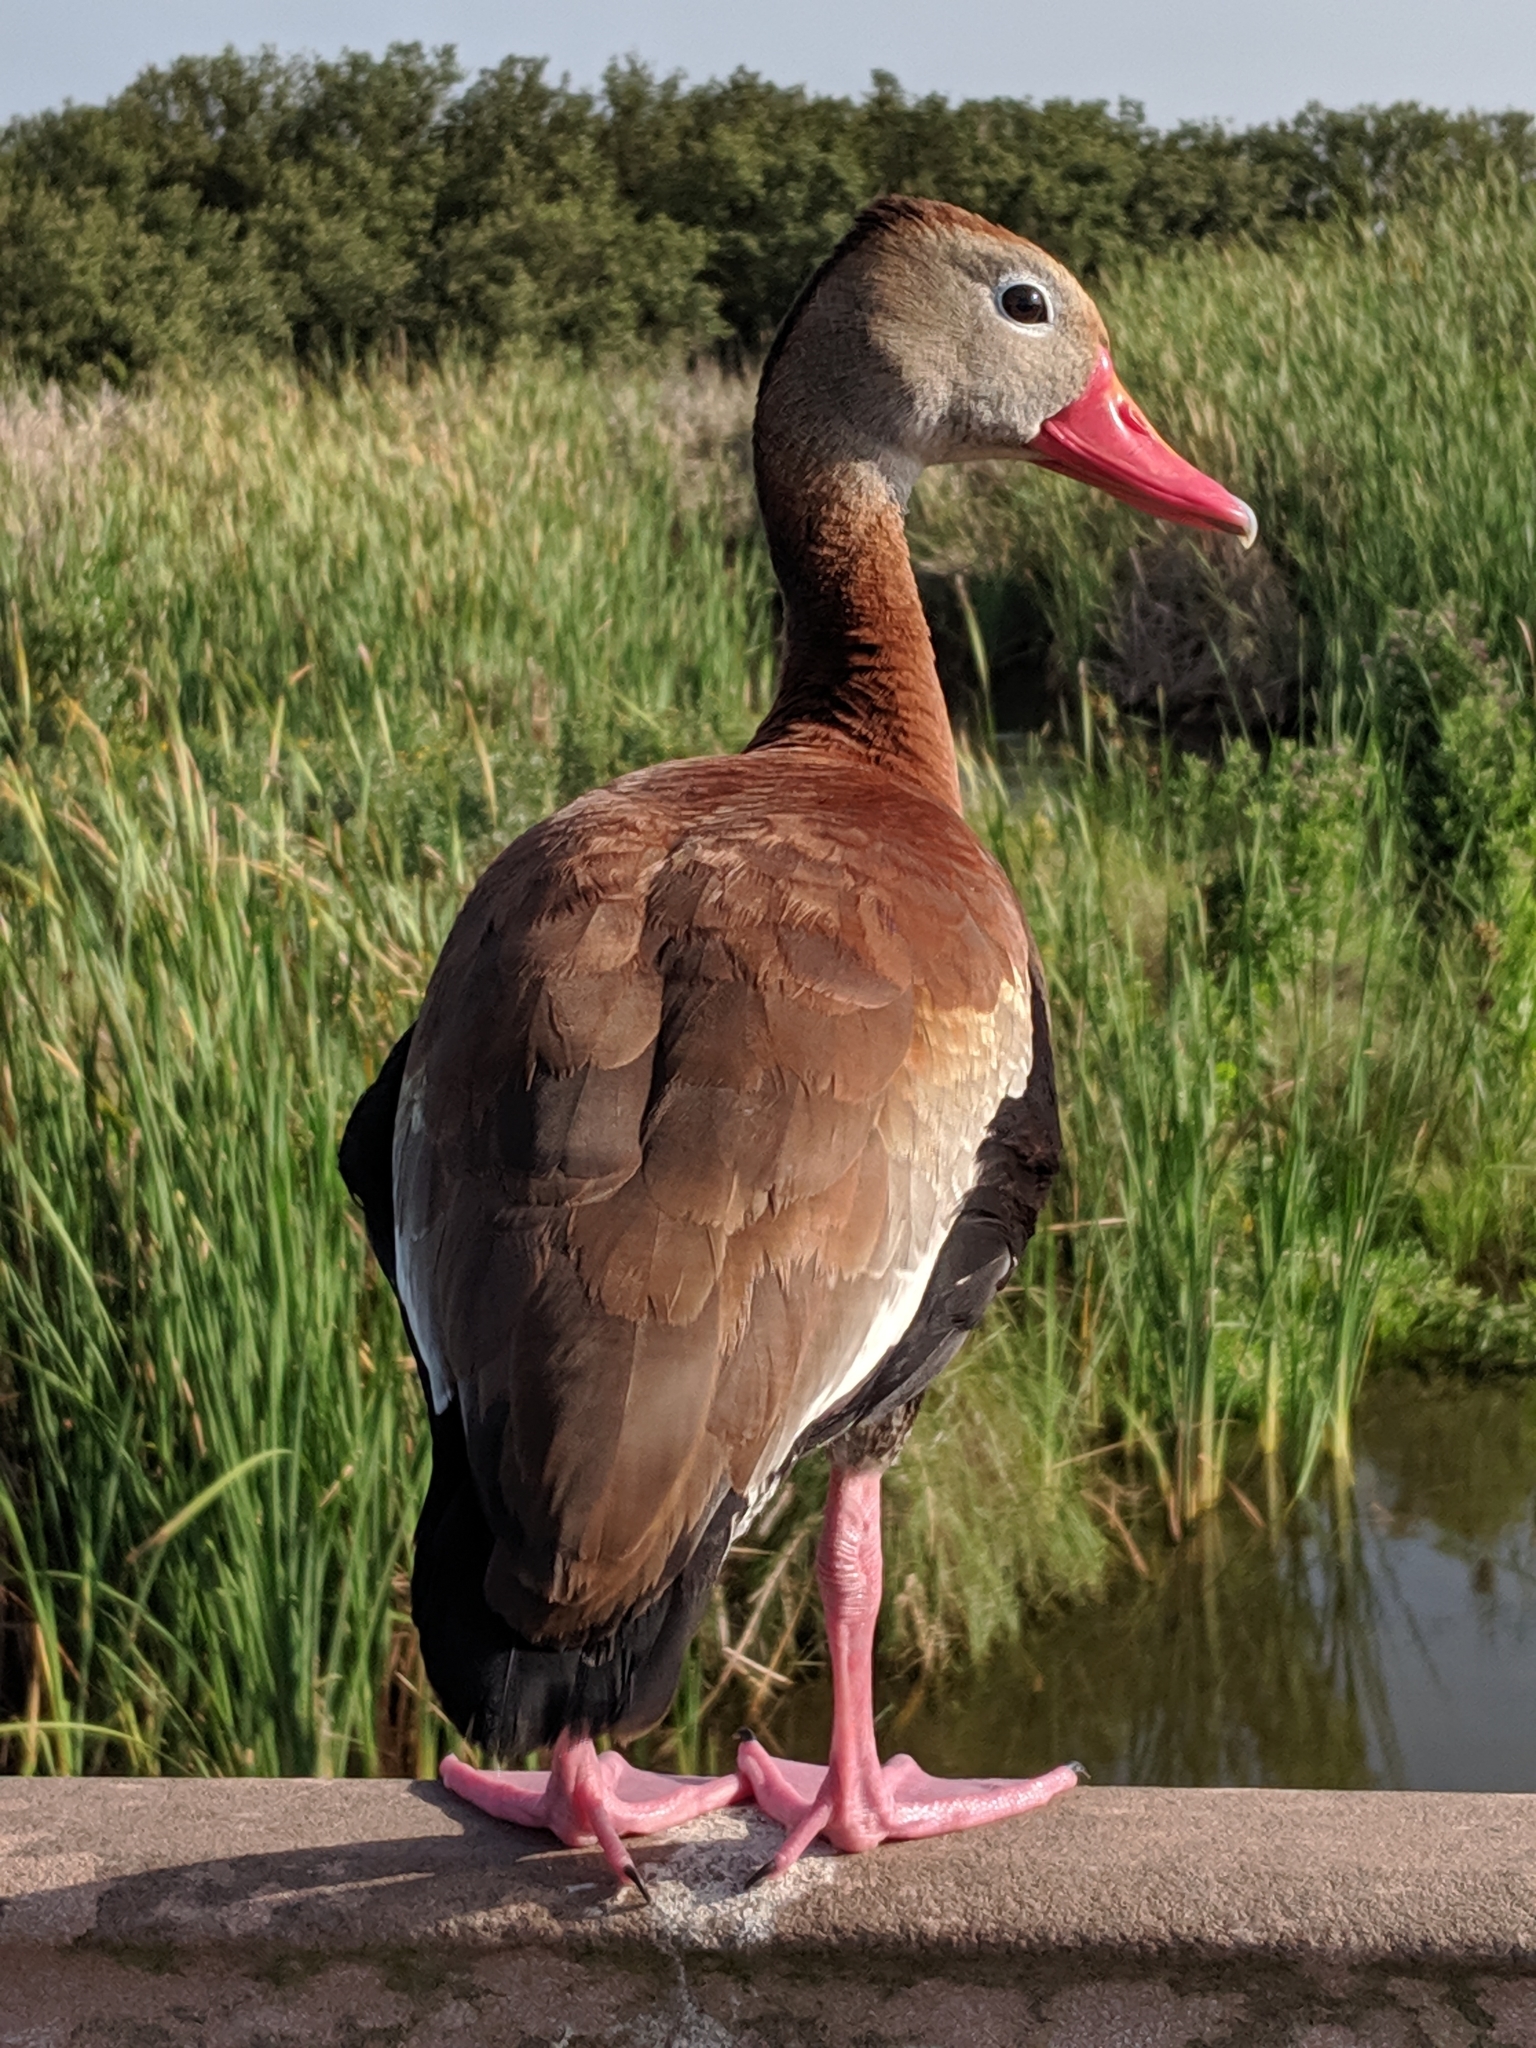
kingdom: Animalia
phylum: Chordata
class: Aves
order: Anseriformes
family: Anatidae
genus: Dendrocygna
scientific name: Dendrocygna autumnalis
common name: Black-bellied whistling duck
